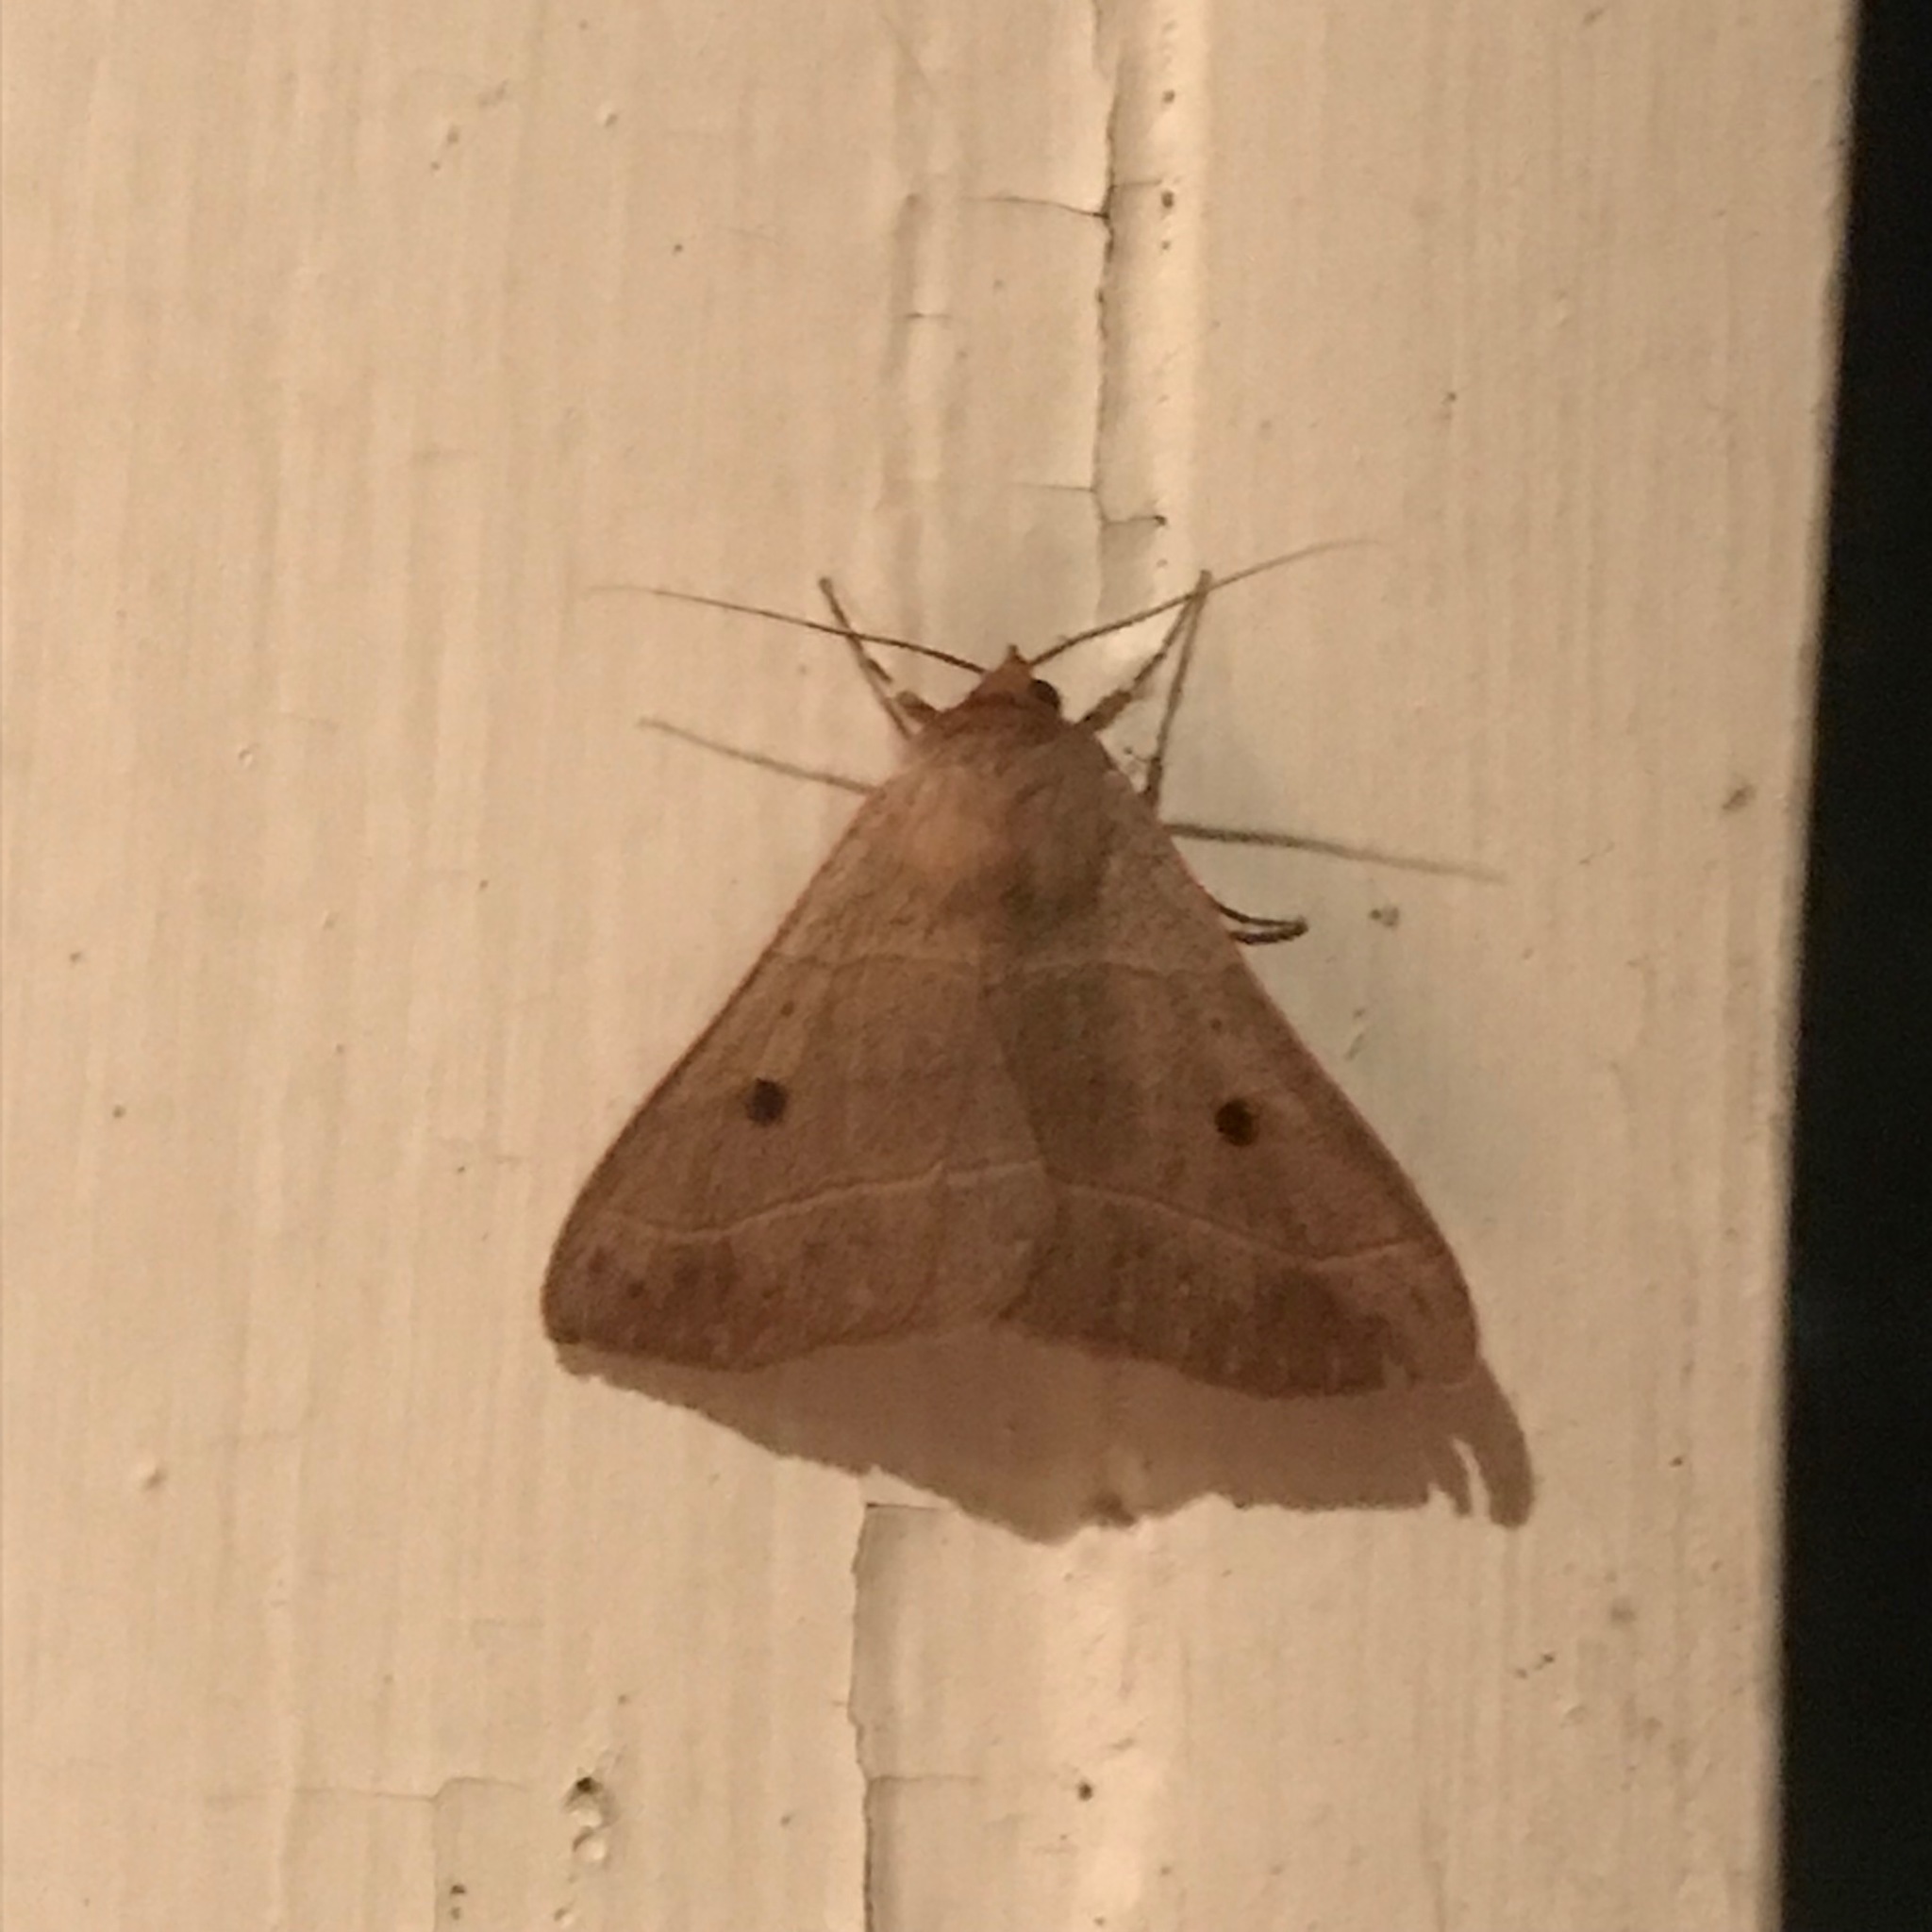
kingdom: Animalia
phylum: Arthropoda
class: Insecta
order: Lepidoptera
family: Erebidae
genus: Panopoda
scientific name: Panopoda rufimargo
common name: Red-lined panopoda moth
